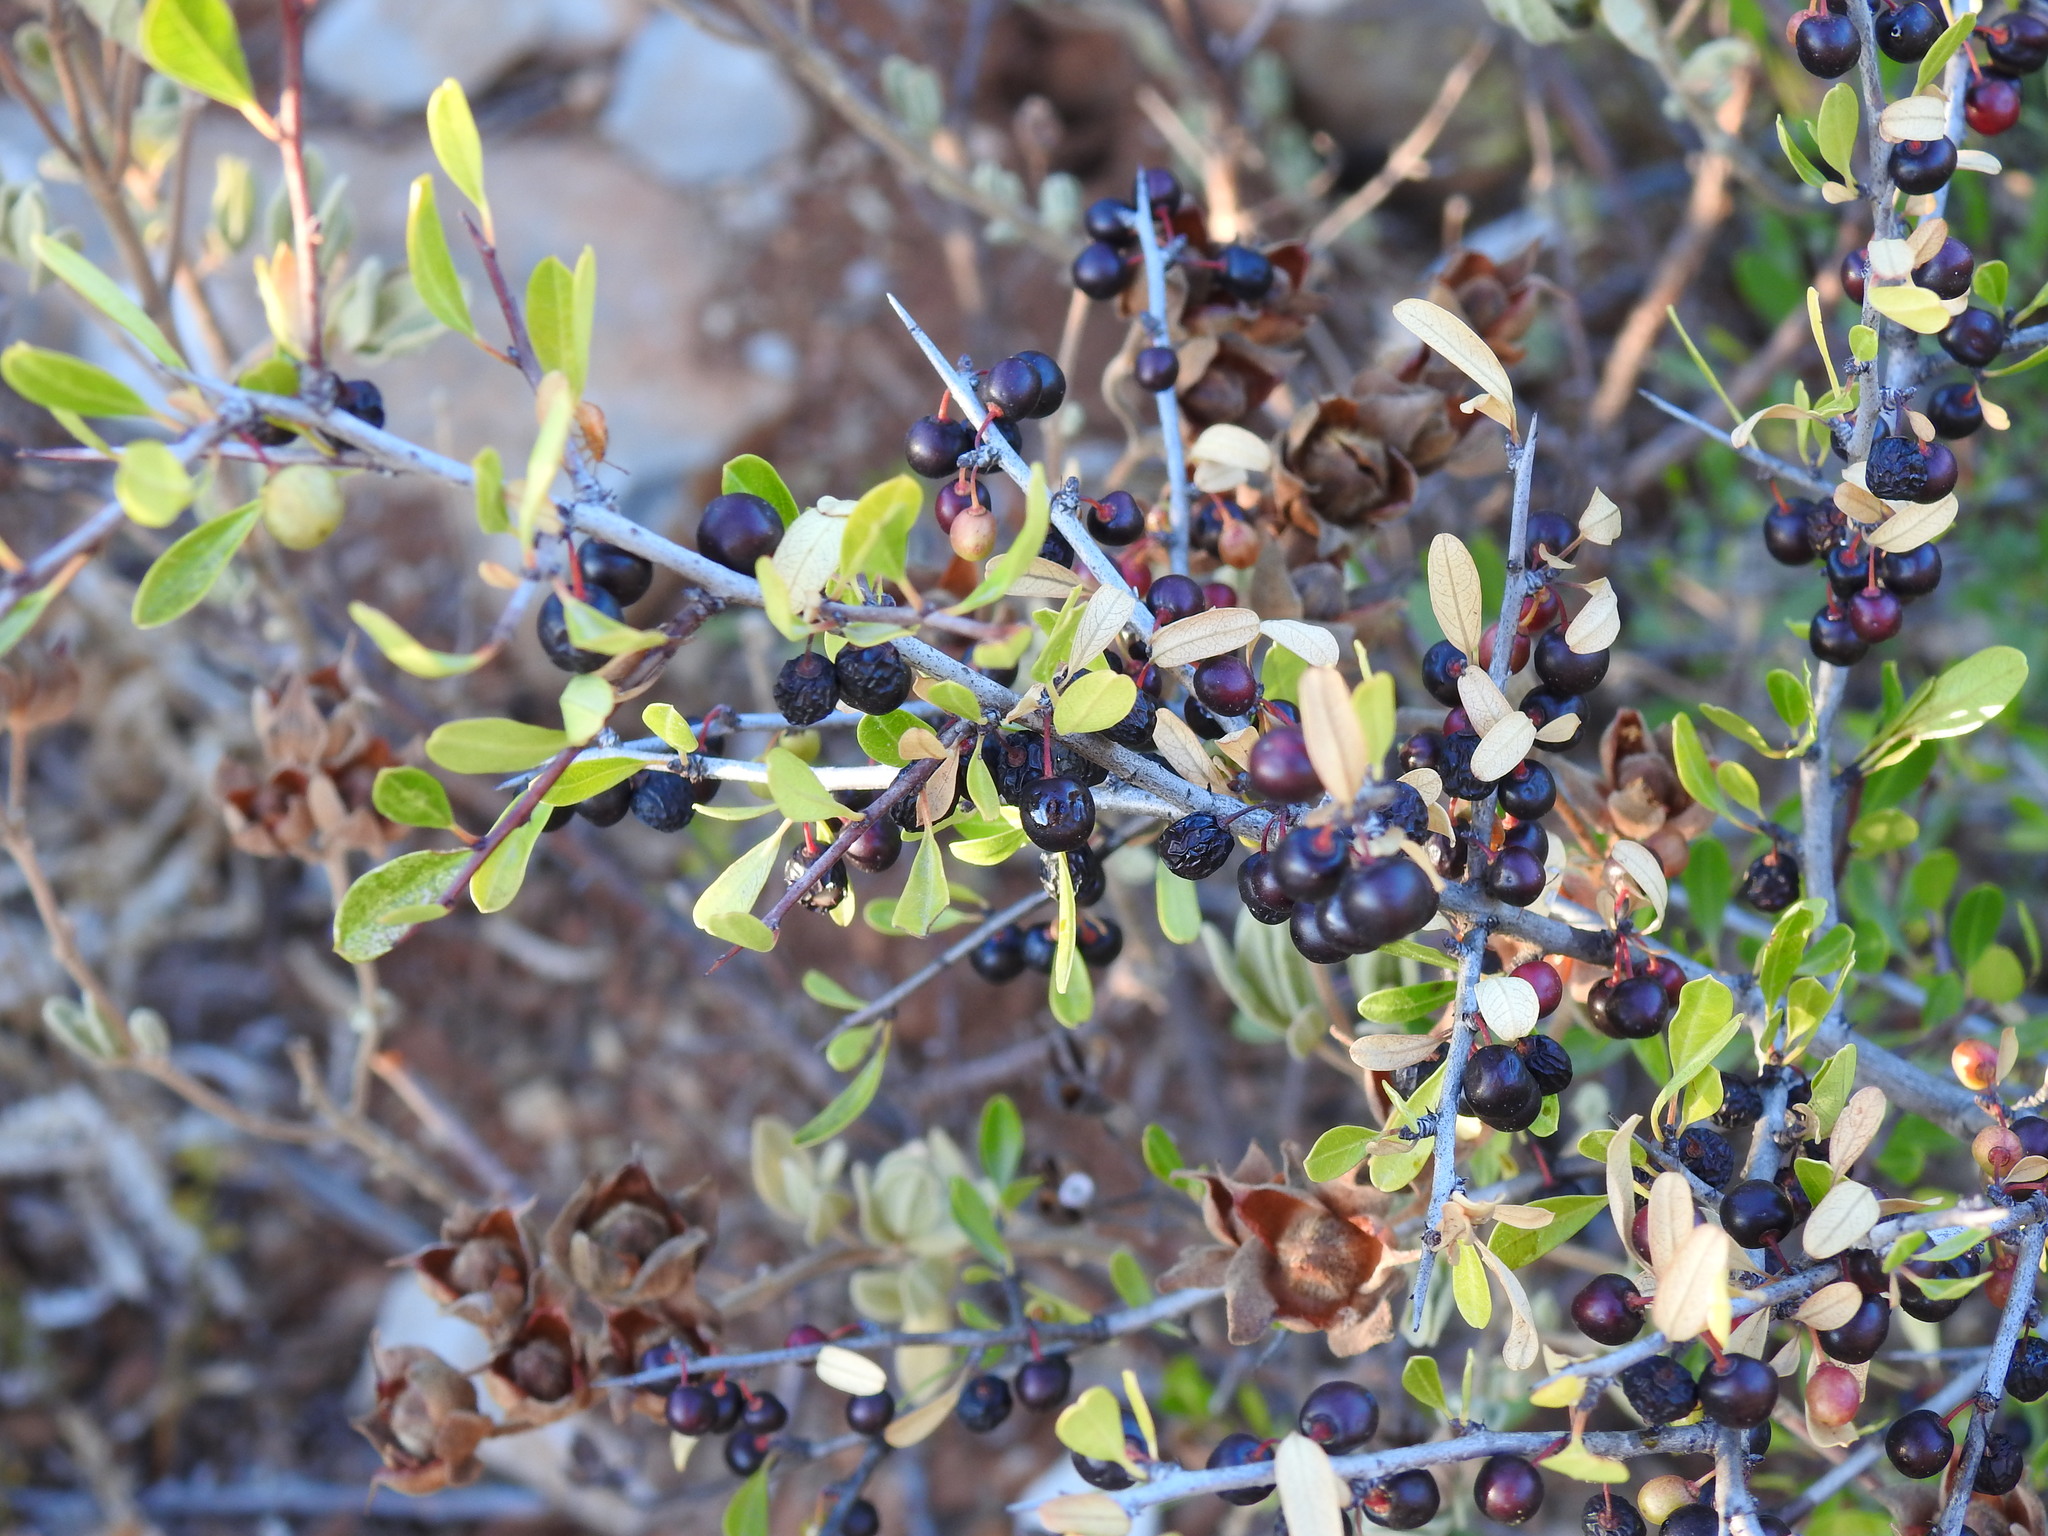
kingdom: Plantae
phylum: Tracheophyta
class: Magnoliopsida
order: Rosales
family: Rhamnaceae
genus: Rhamnus
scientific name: Rhamnus oleoides
